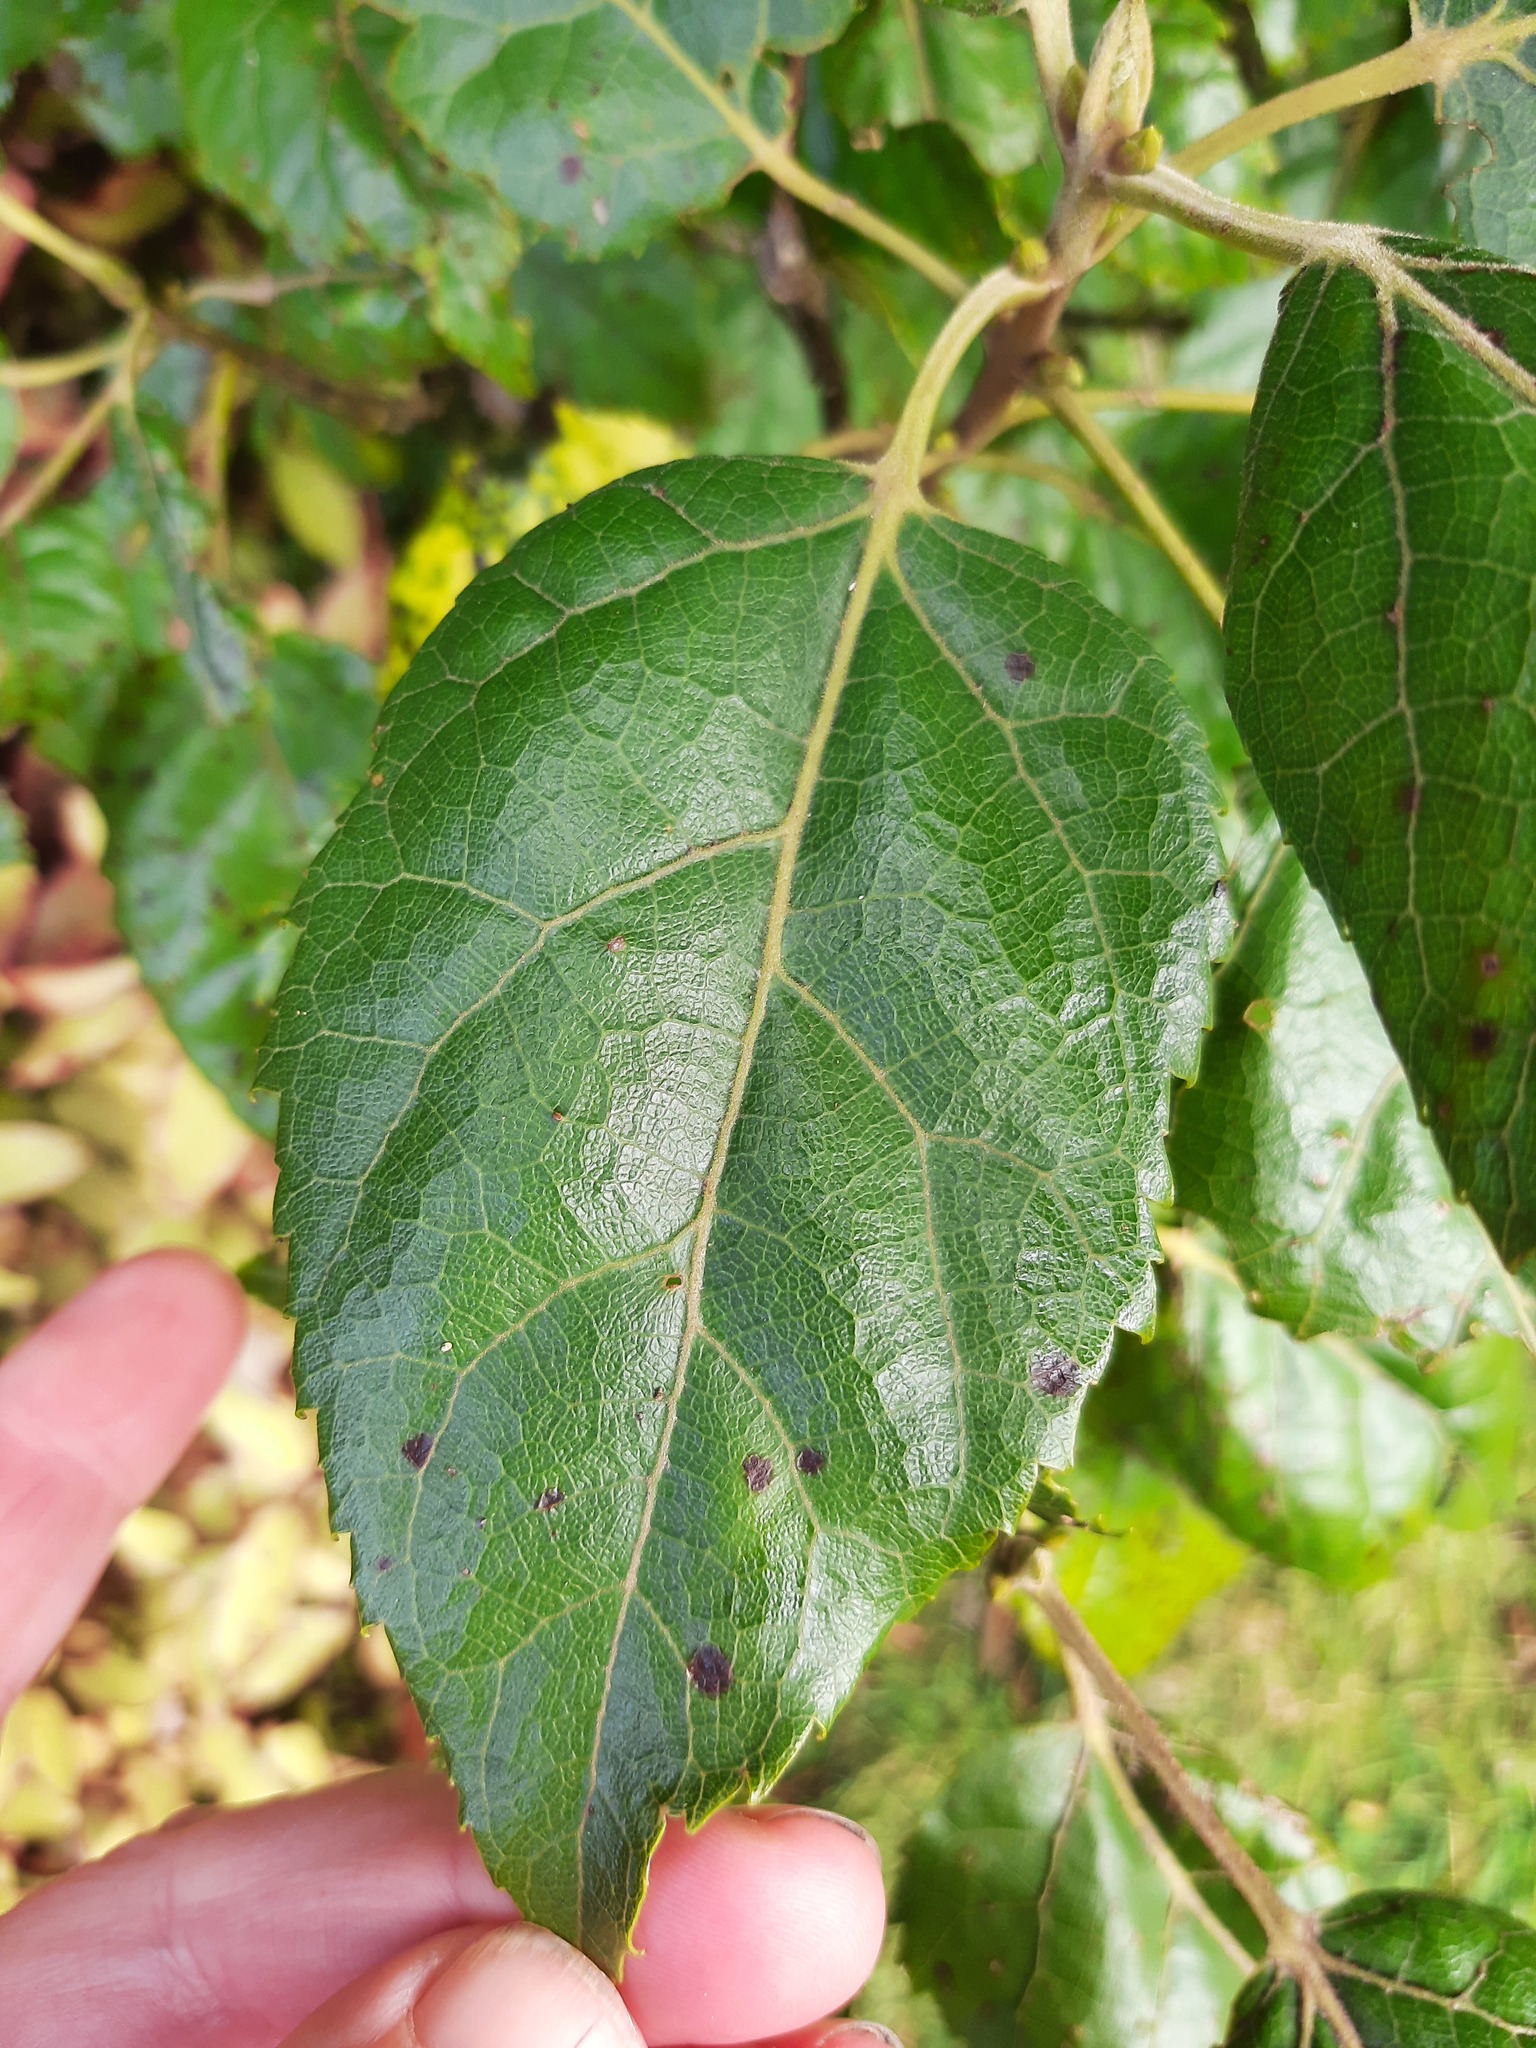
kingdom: Plantae
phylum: Tracheophyta
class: Magnoliopsida
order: Oxalidales
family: Elaeocarpaceae
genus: Aristotelia
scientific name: Aristotelia serrata
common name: New zealand wineberry
